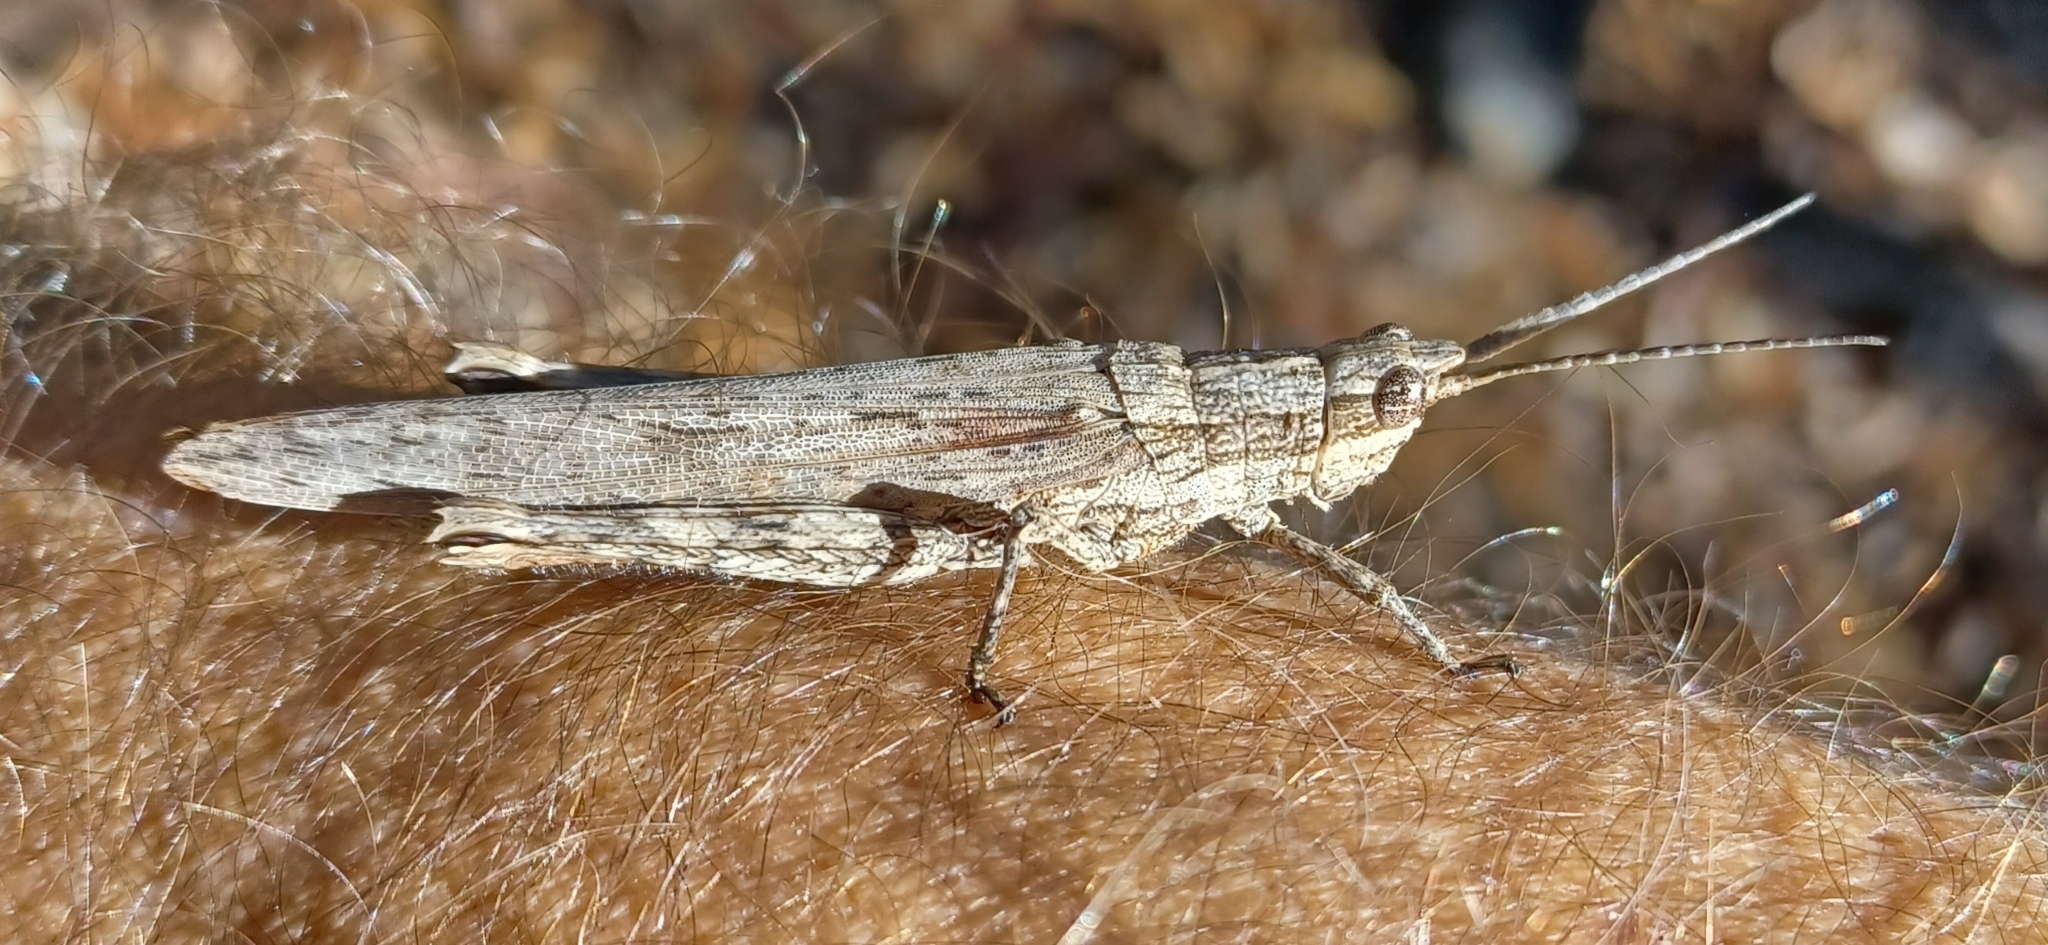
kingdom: Animalia
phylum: Arthropoda
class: Insecta
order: Orthoptera
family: Acrididae
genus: Coryphistes
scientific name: Coryphistes ruricola
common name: Bark-mimicking grasshopper
